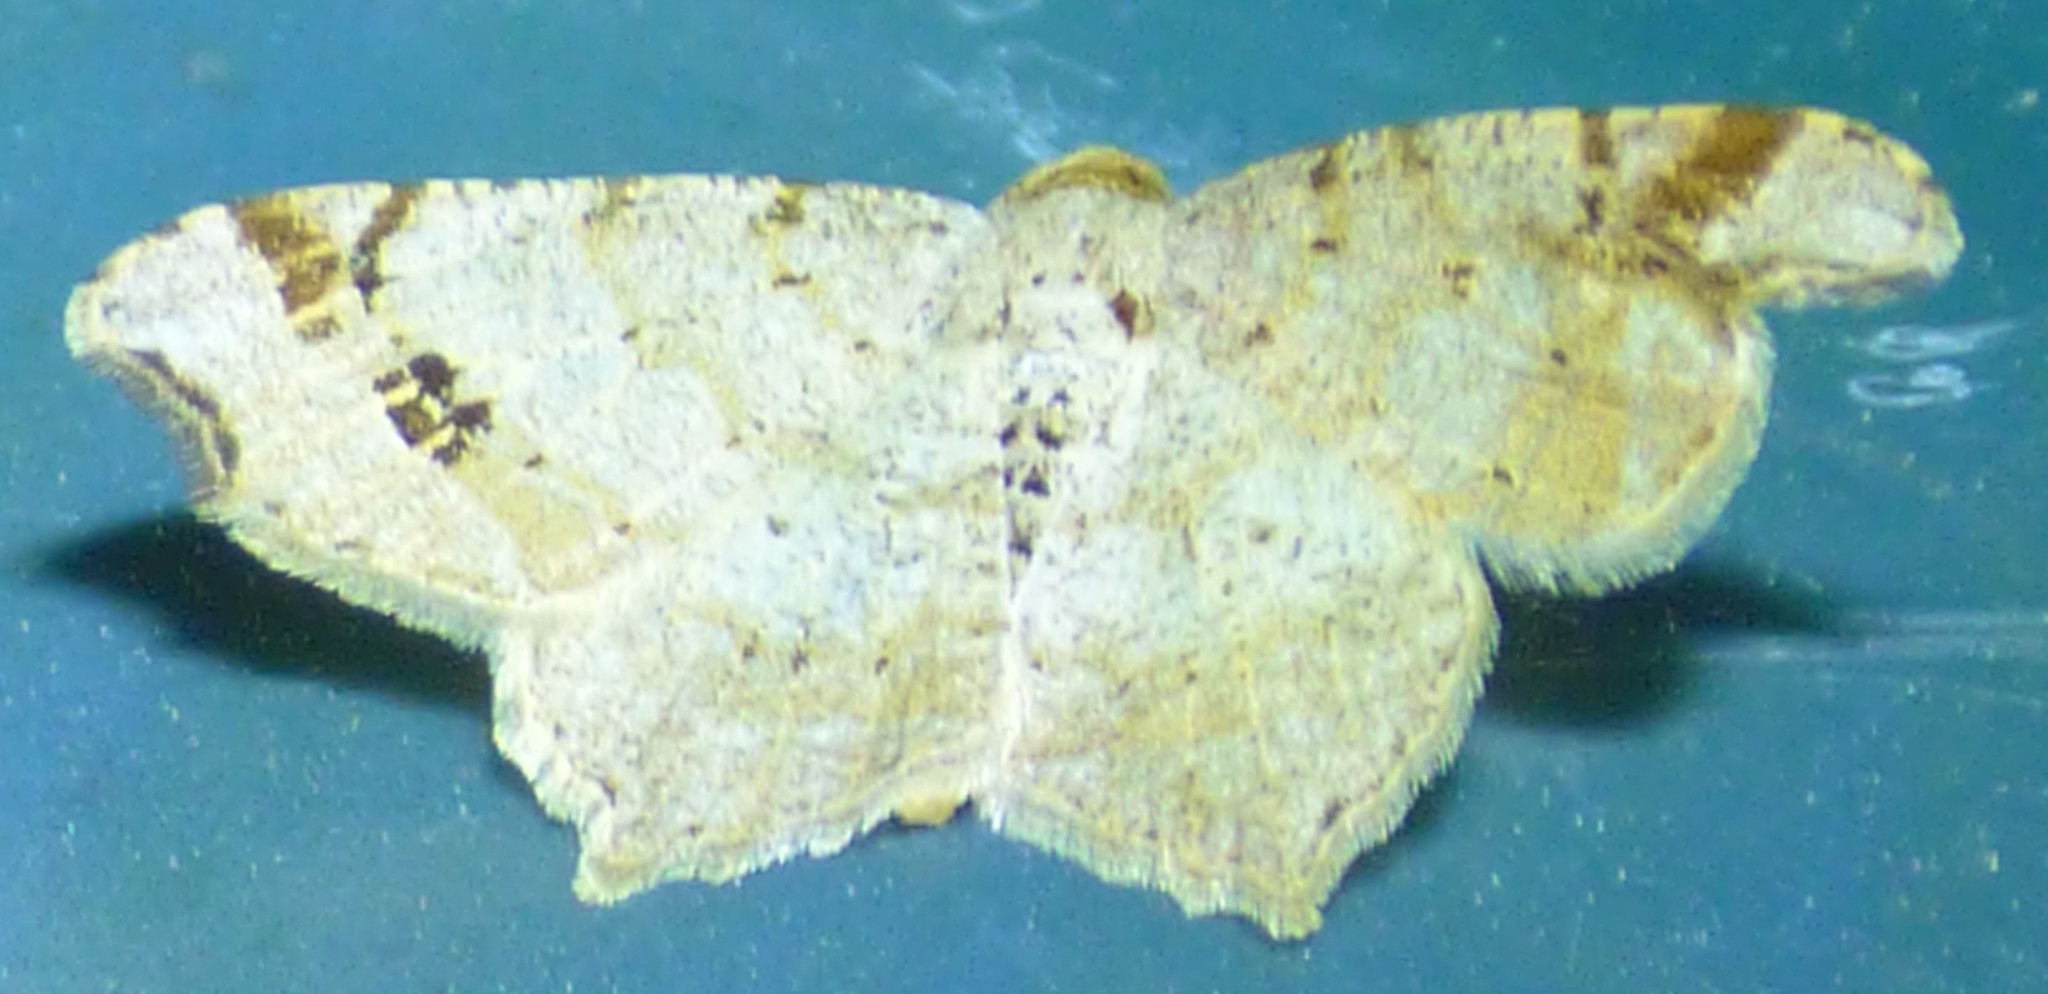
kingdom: Animalia
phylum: Arthropoda
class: Insecta
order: Lepidoptera
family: Geometridae
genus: Macaria
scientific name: Macaria aemulataria
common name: Common angle
